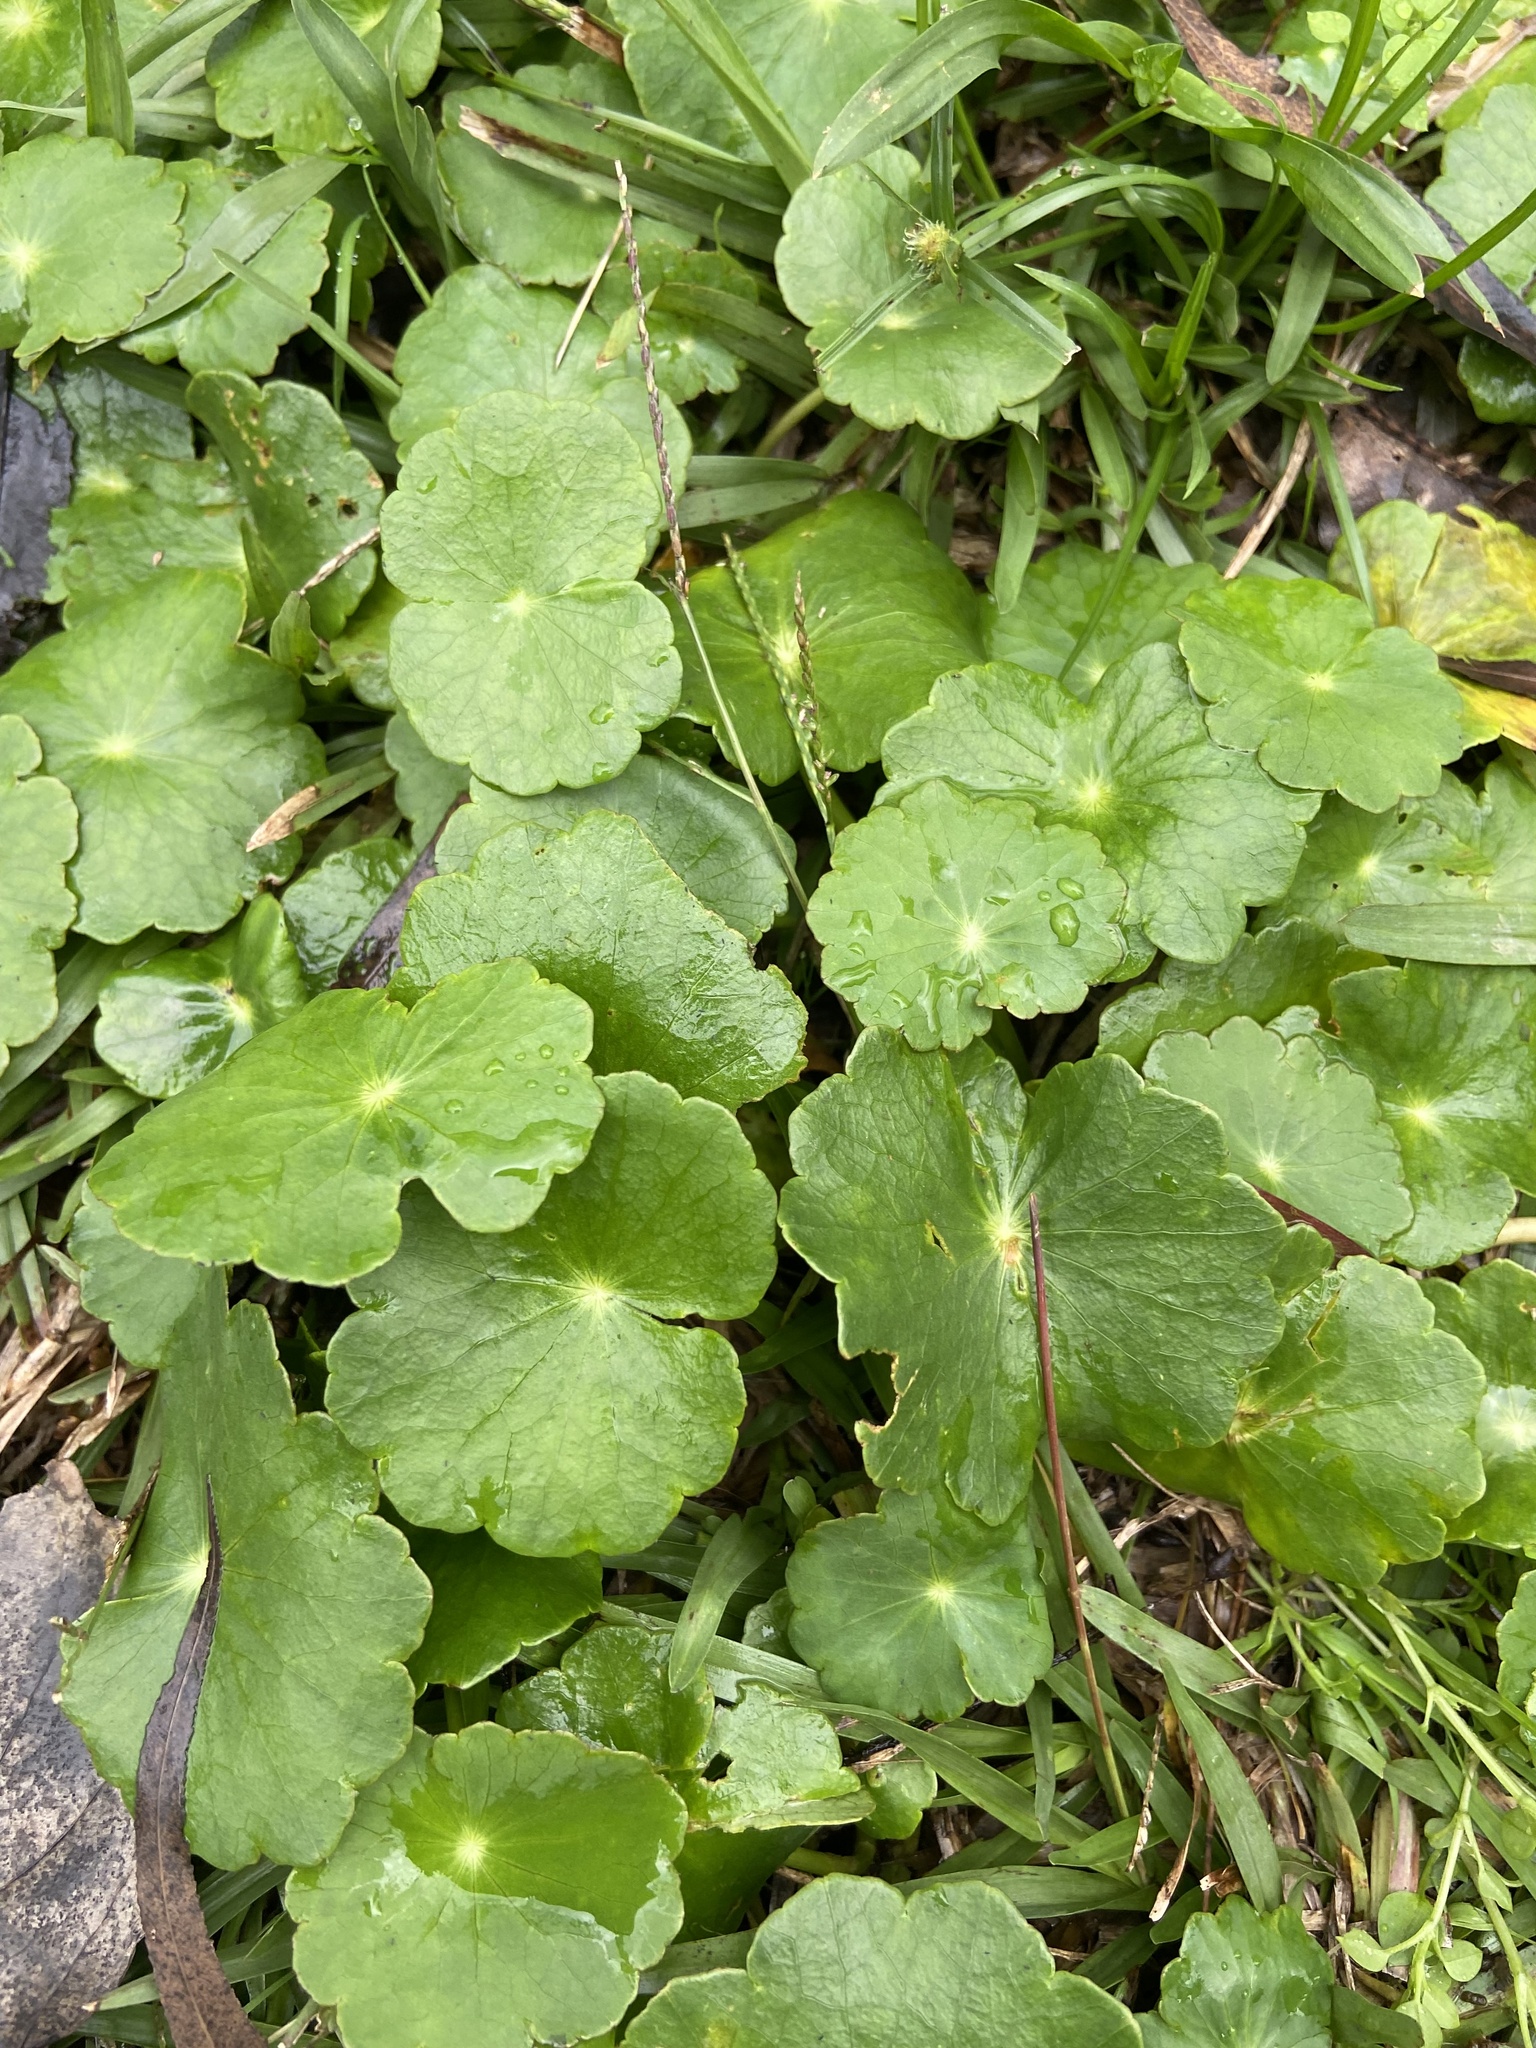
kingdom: Plantae
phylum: Tracheophyta
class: Magnoliopsida
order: Apiales
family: Araliaceae
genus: Hydrocotyle
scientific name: Hydrocotyle bonariensis
